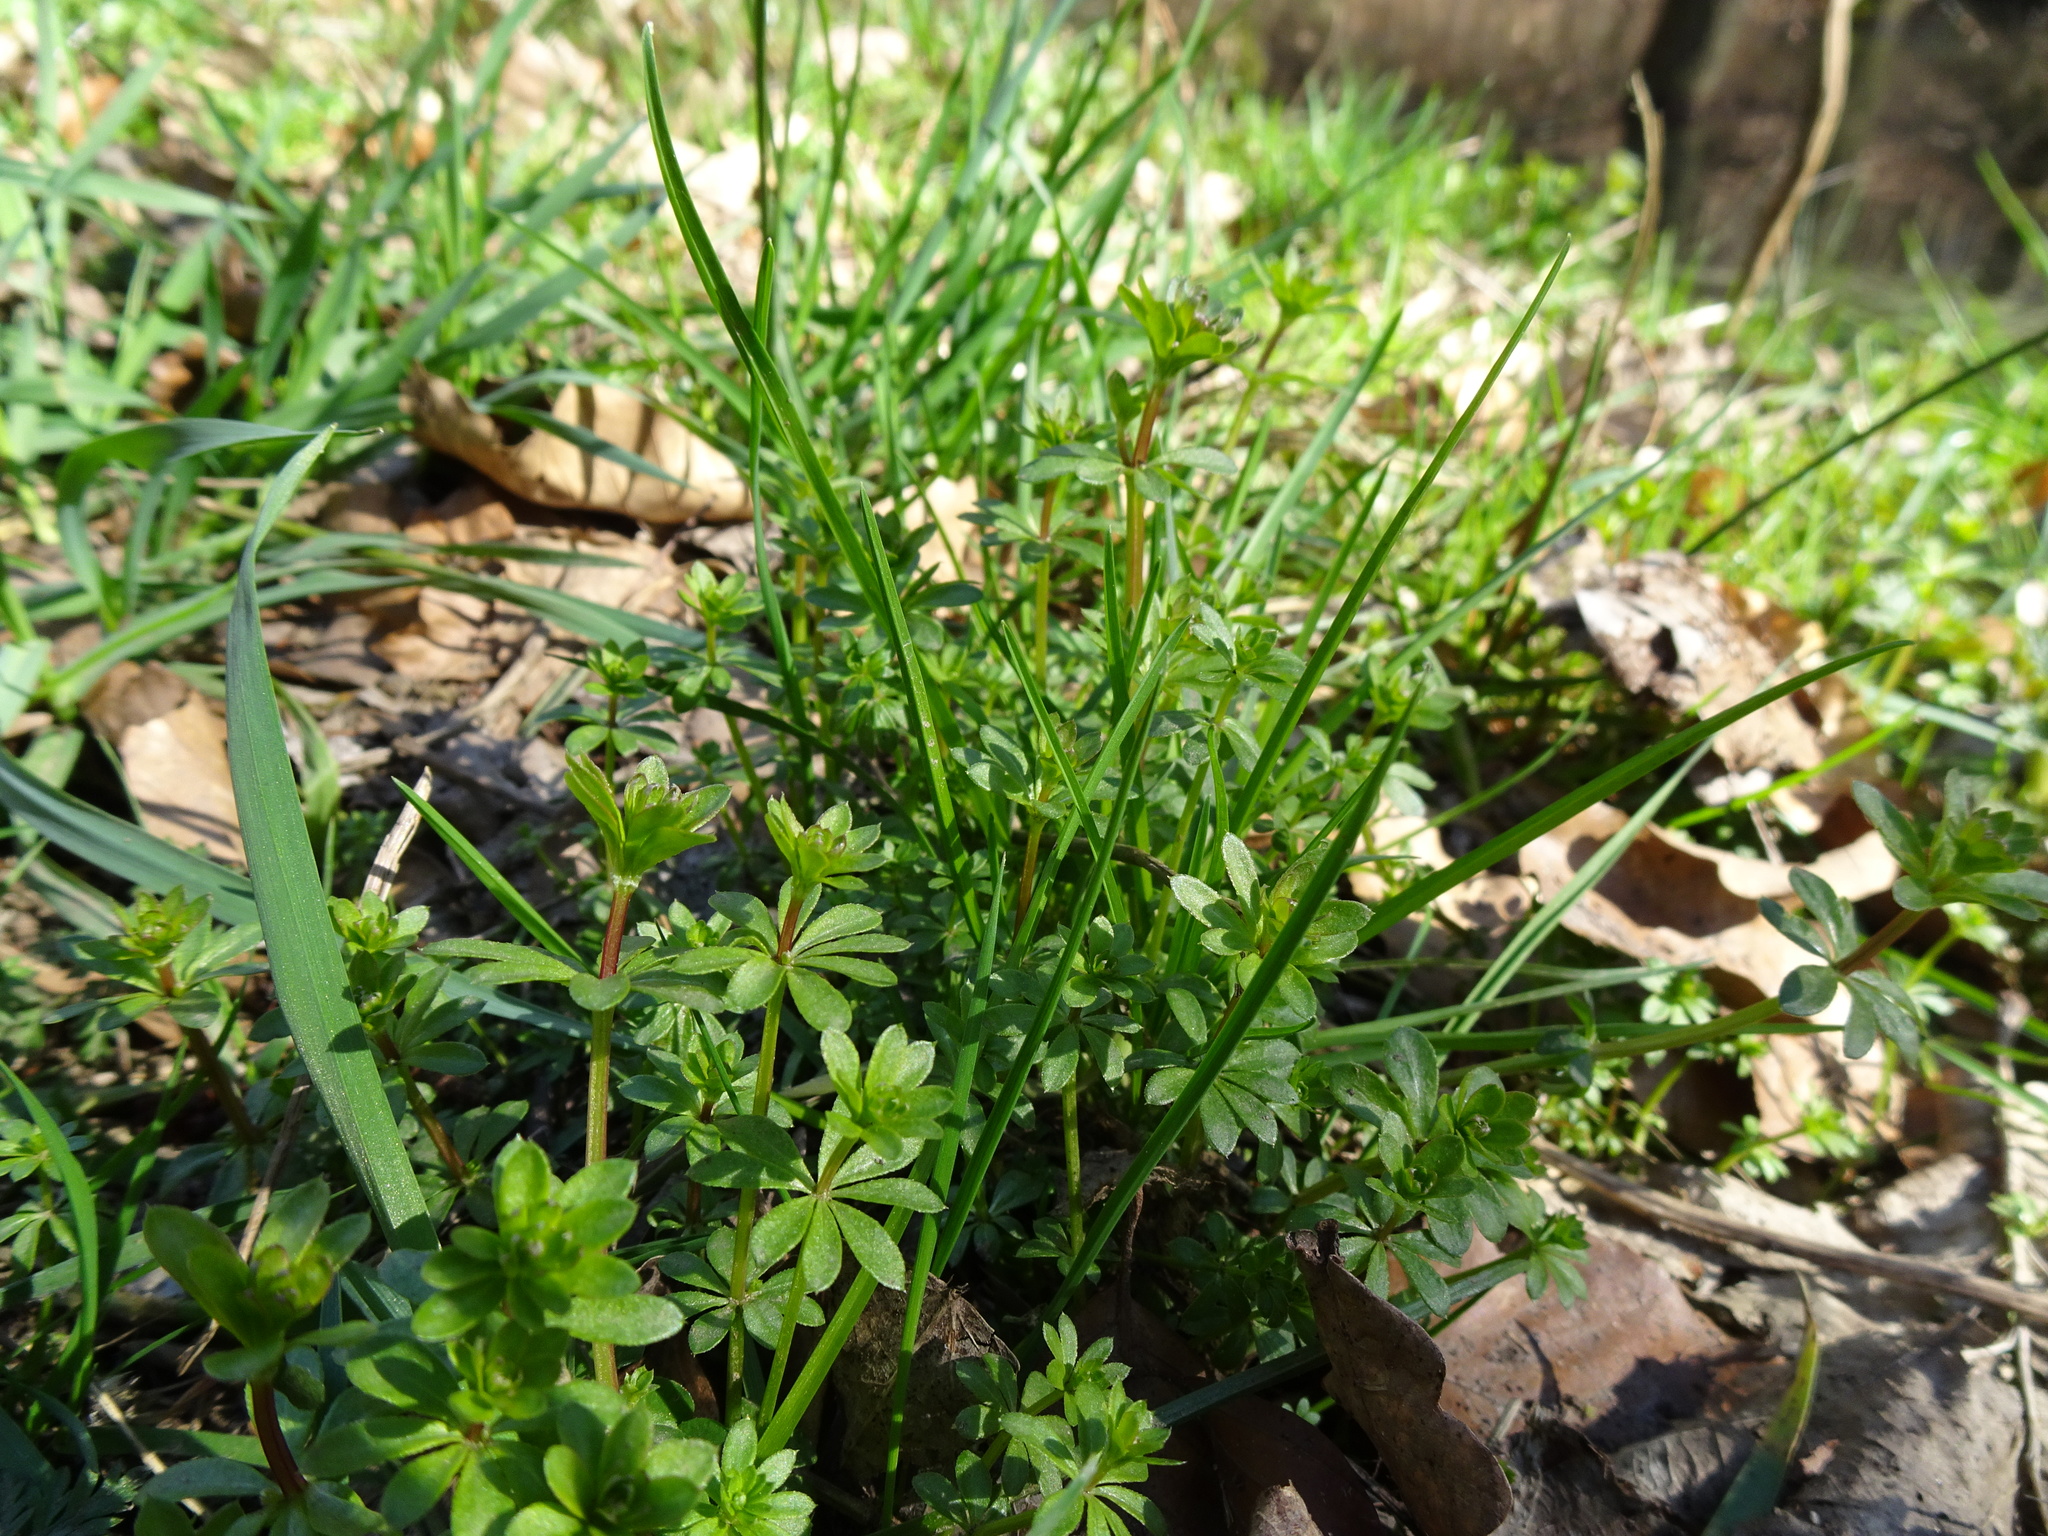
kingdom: Plantae
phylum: Tracheophyta
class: Magnoliopsida
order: Gentianales
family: Rubiaceae
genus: Galium
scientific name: Galium album
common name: White bedstraw
